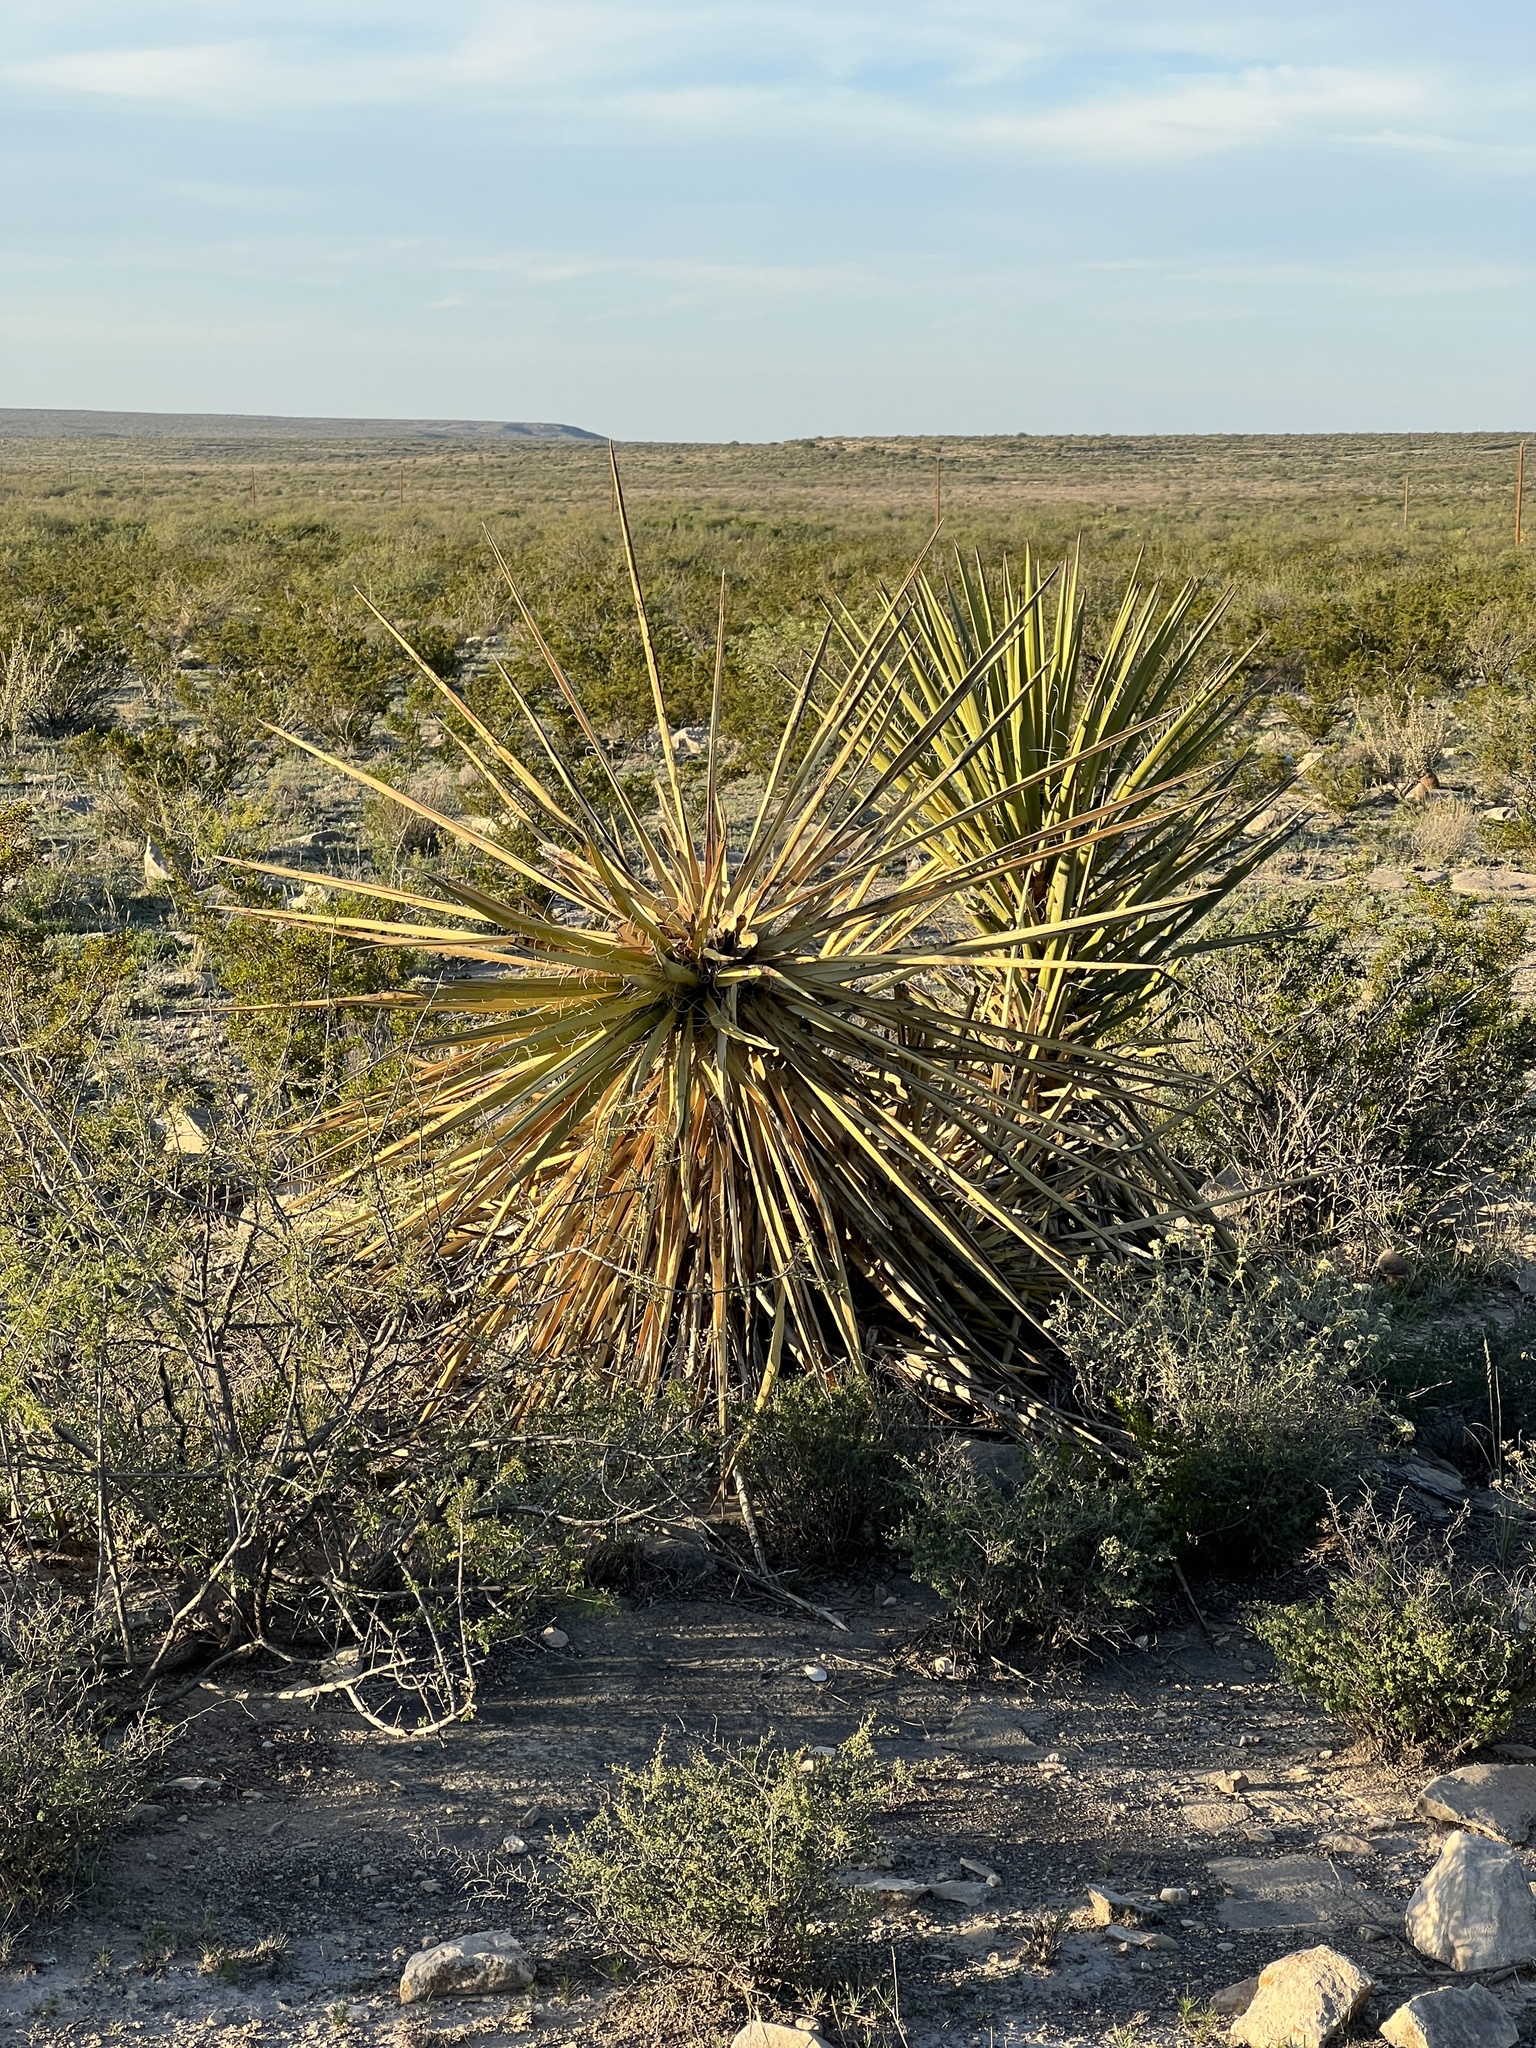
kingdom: Plantae
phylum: Tracheophyta
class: Liliopsida
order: Asparagales
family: Asparagaceae
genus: Yucca
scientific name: Yucca treculiana
